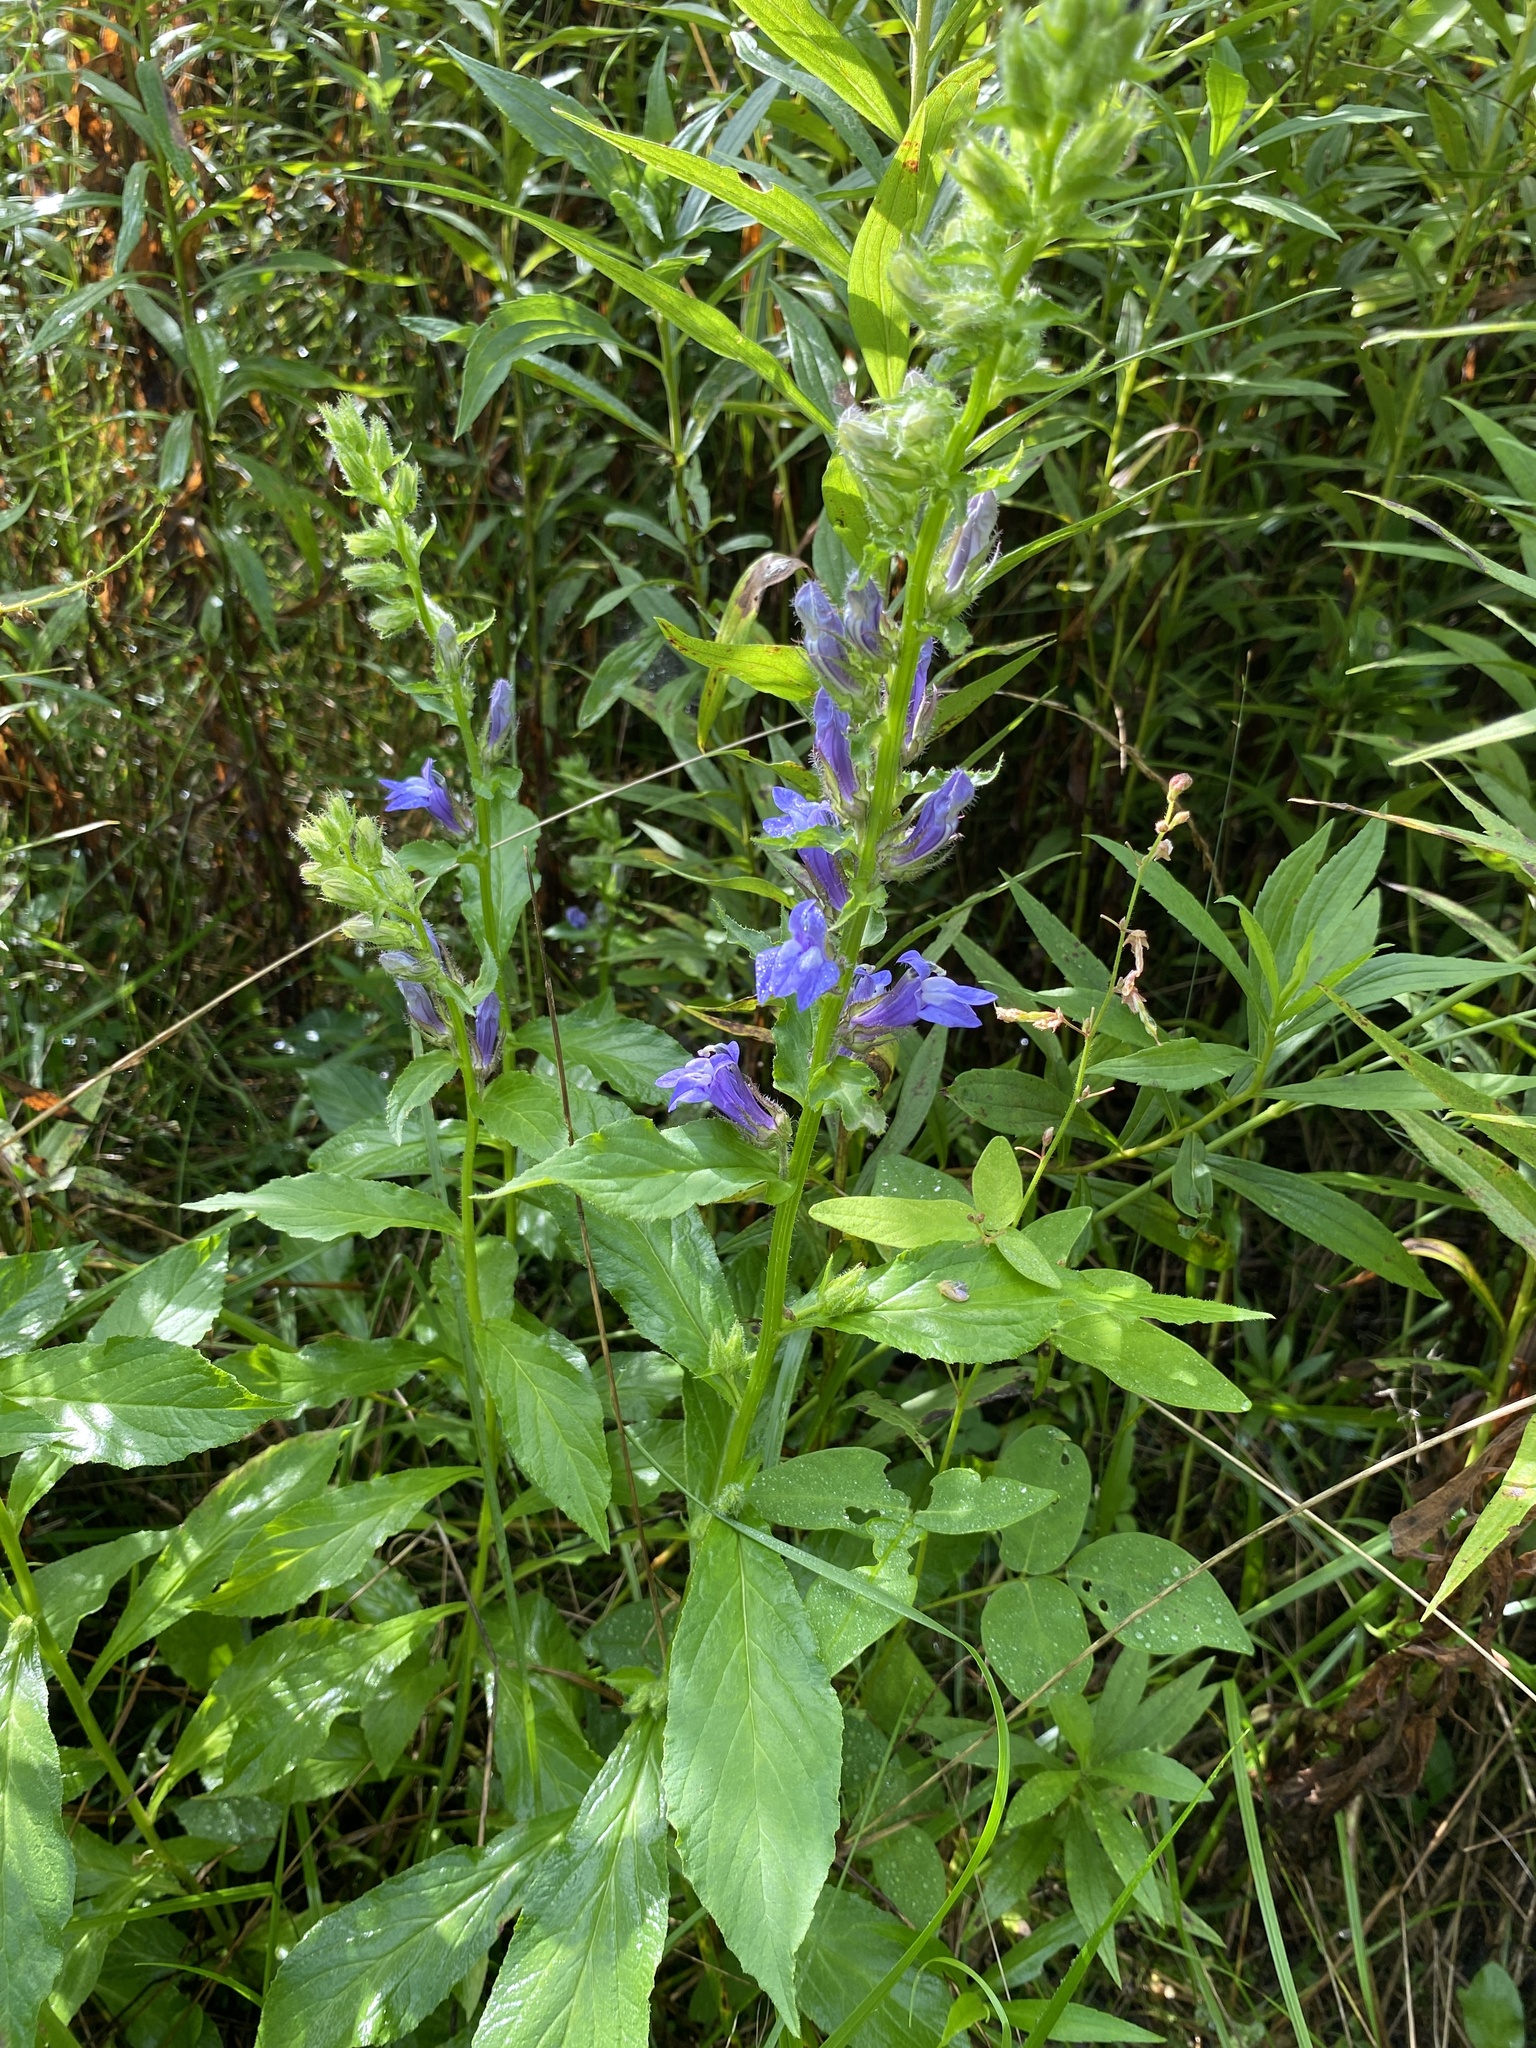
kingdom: Plantae
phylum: Tracheophyta
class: Magnoliopsida
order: Asterales
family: Campanulaceae
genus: Lobelia
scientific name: Lobelia siphilitica
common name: Great lobelia
